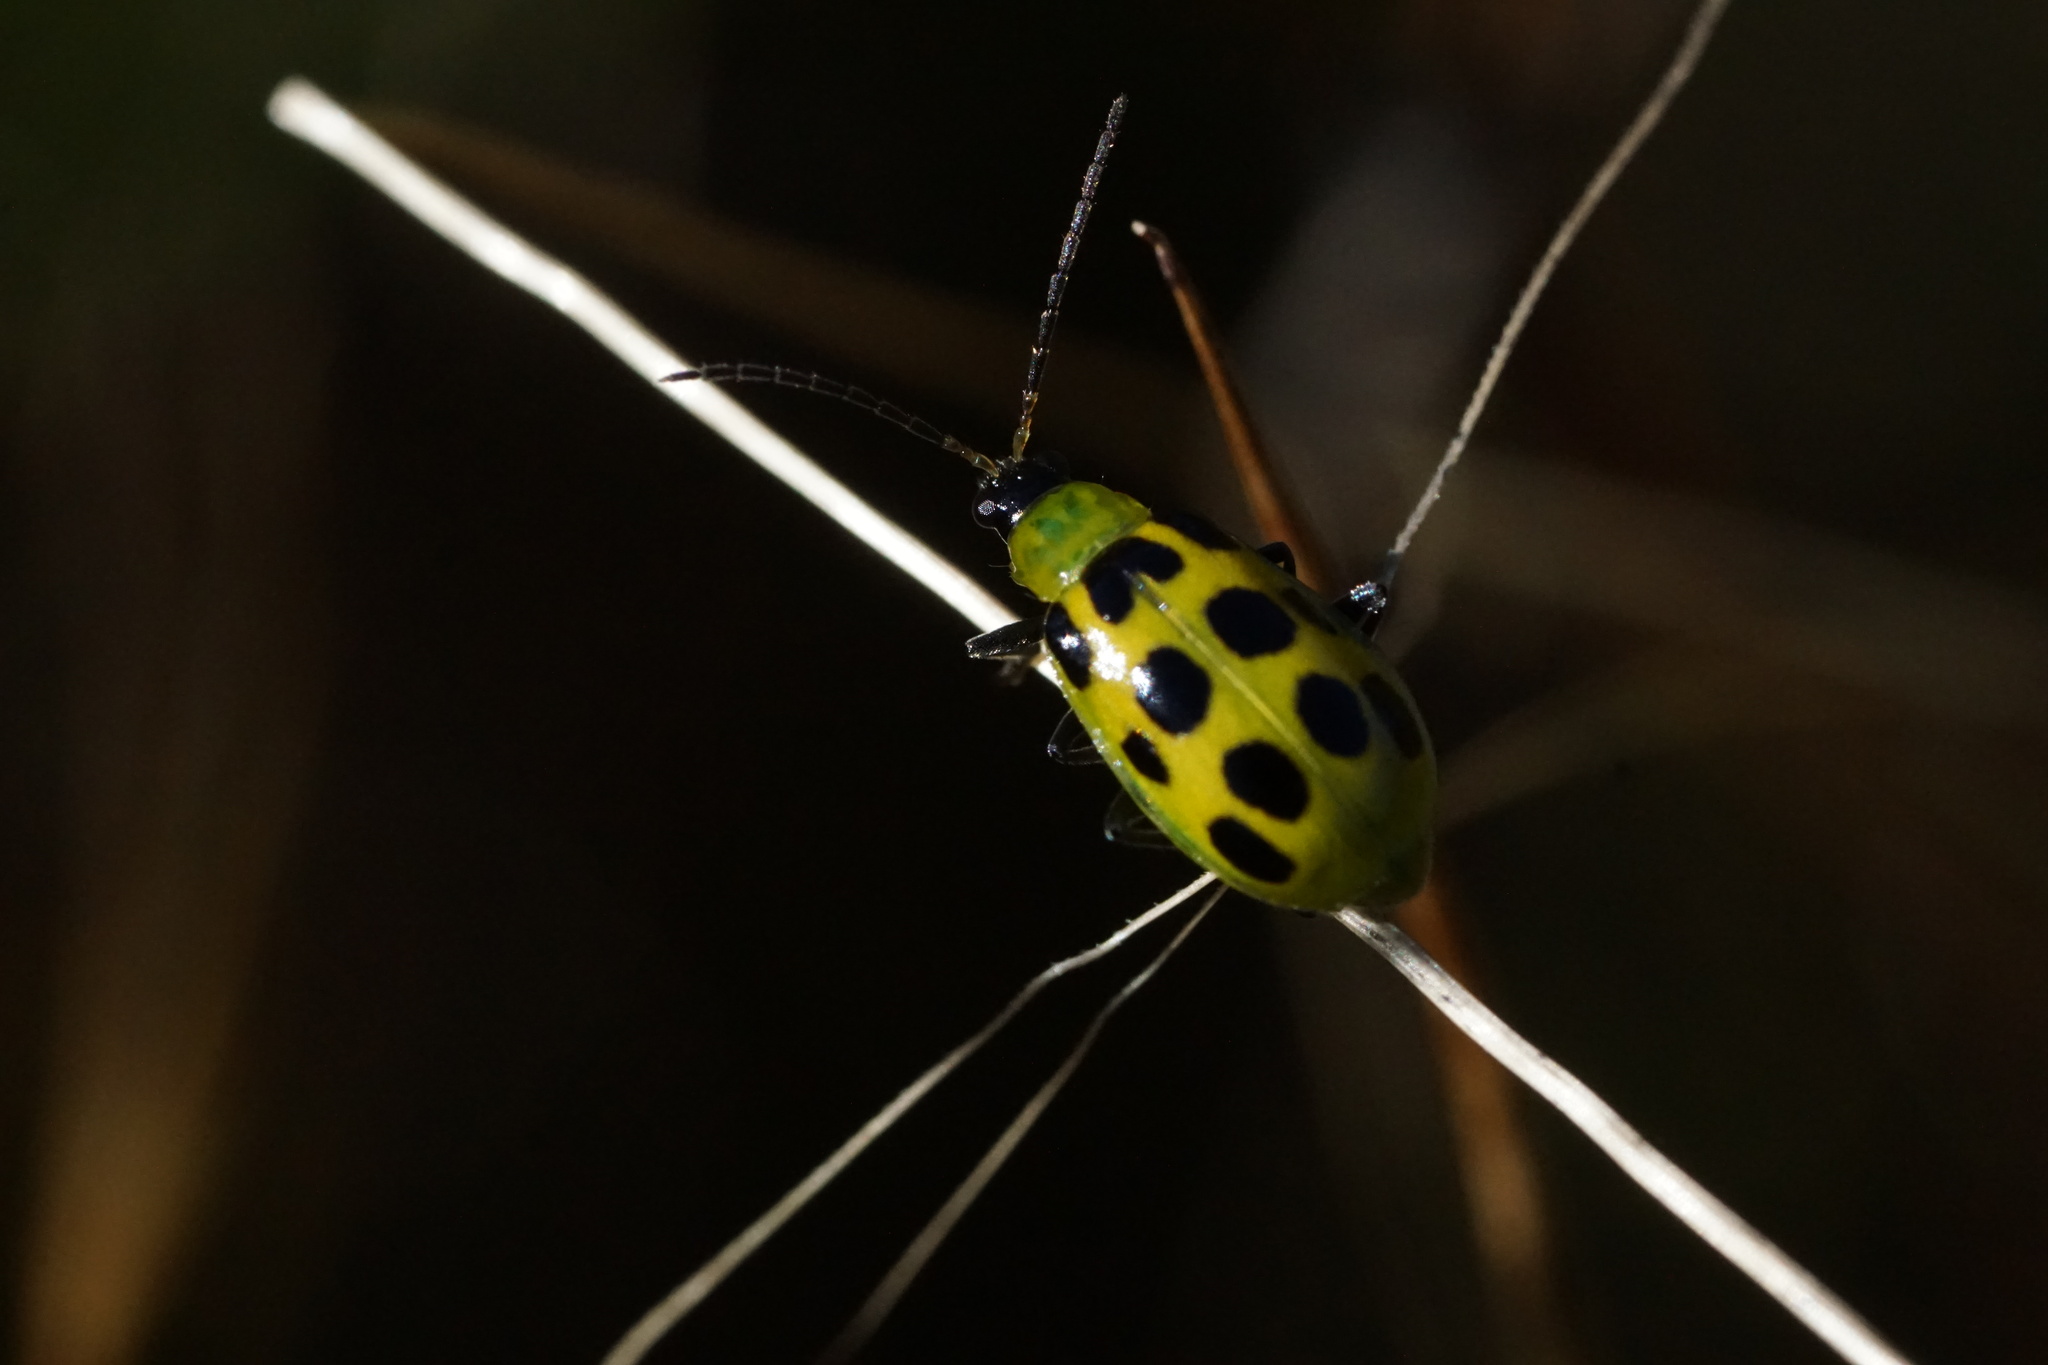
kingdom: Animalia
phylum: Arthropoda
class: Insecta
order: Coleoptera
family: Chrysomelidae
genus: Diabrotica
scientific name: Diabrotica undecimpunctata
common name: Spotted cucumber beetle
